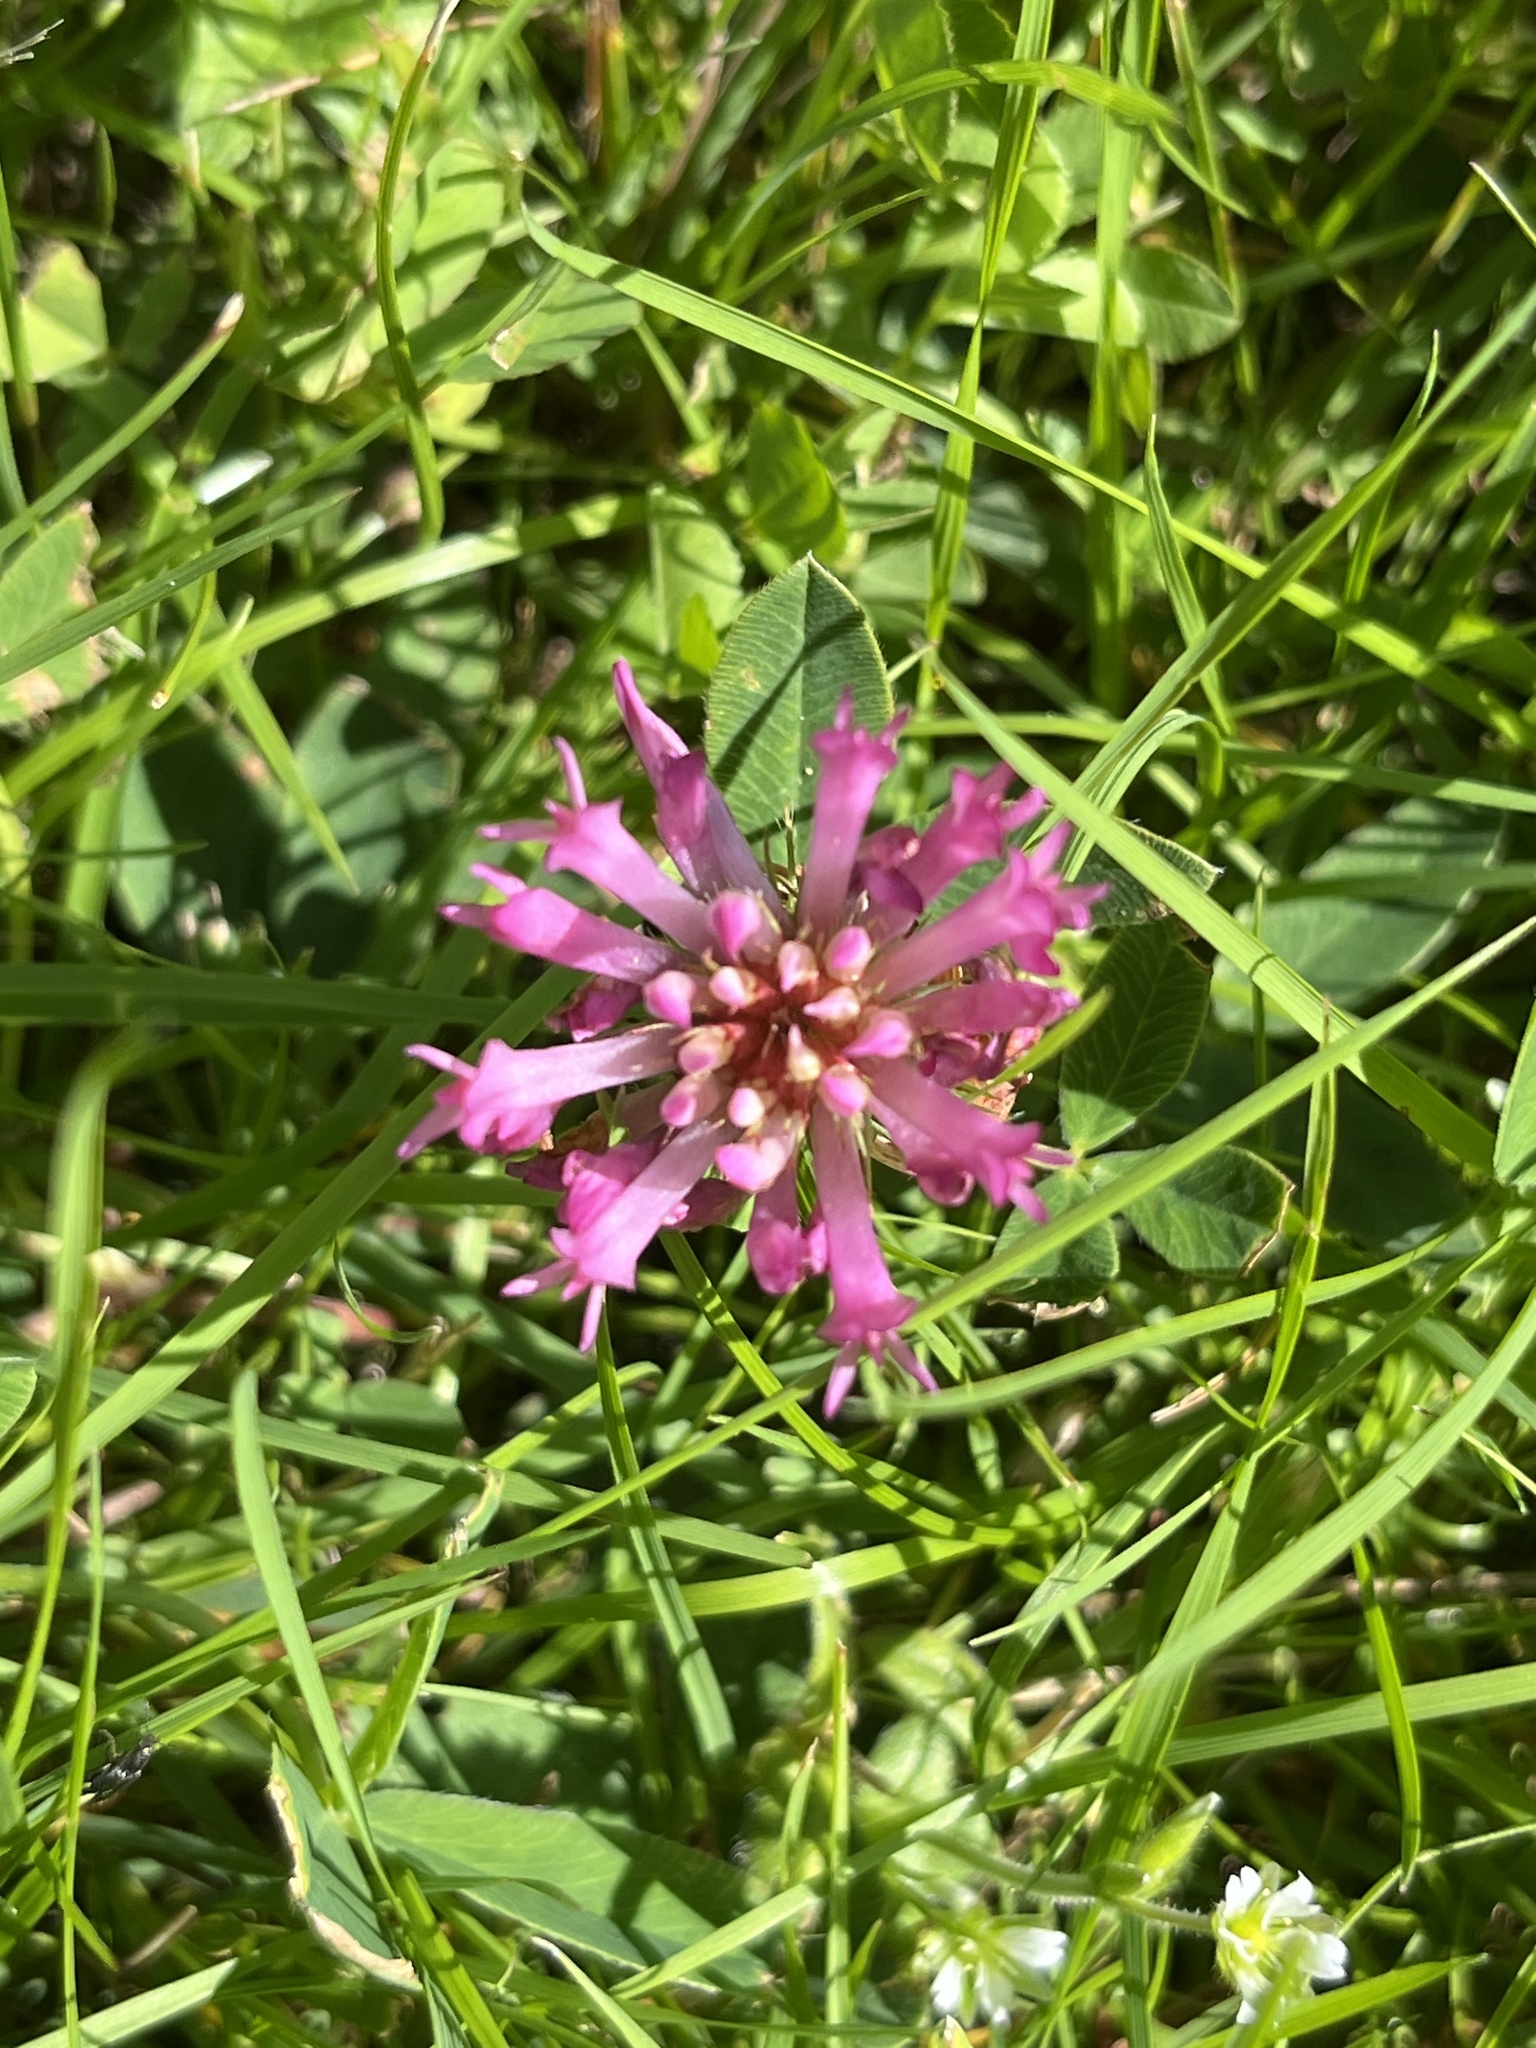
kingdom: Plantae
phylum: Tracheophyta
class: Magnoliopsida
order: Fabales
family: Fabaceae
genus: Trifolium
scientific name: Trifolium pratense
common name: Red clover
